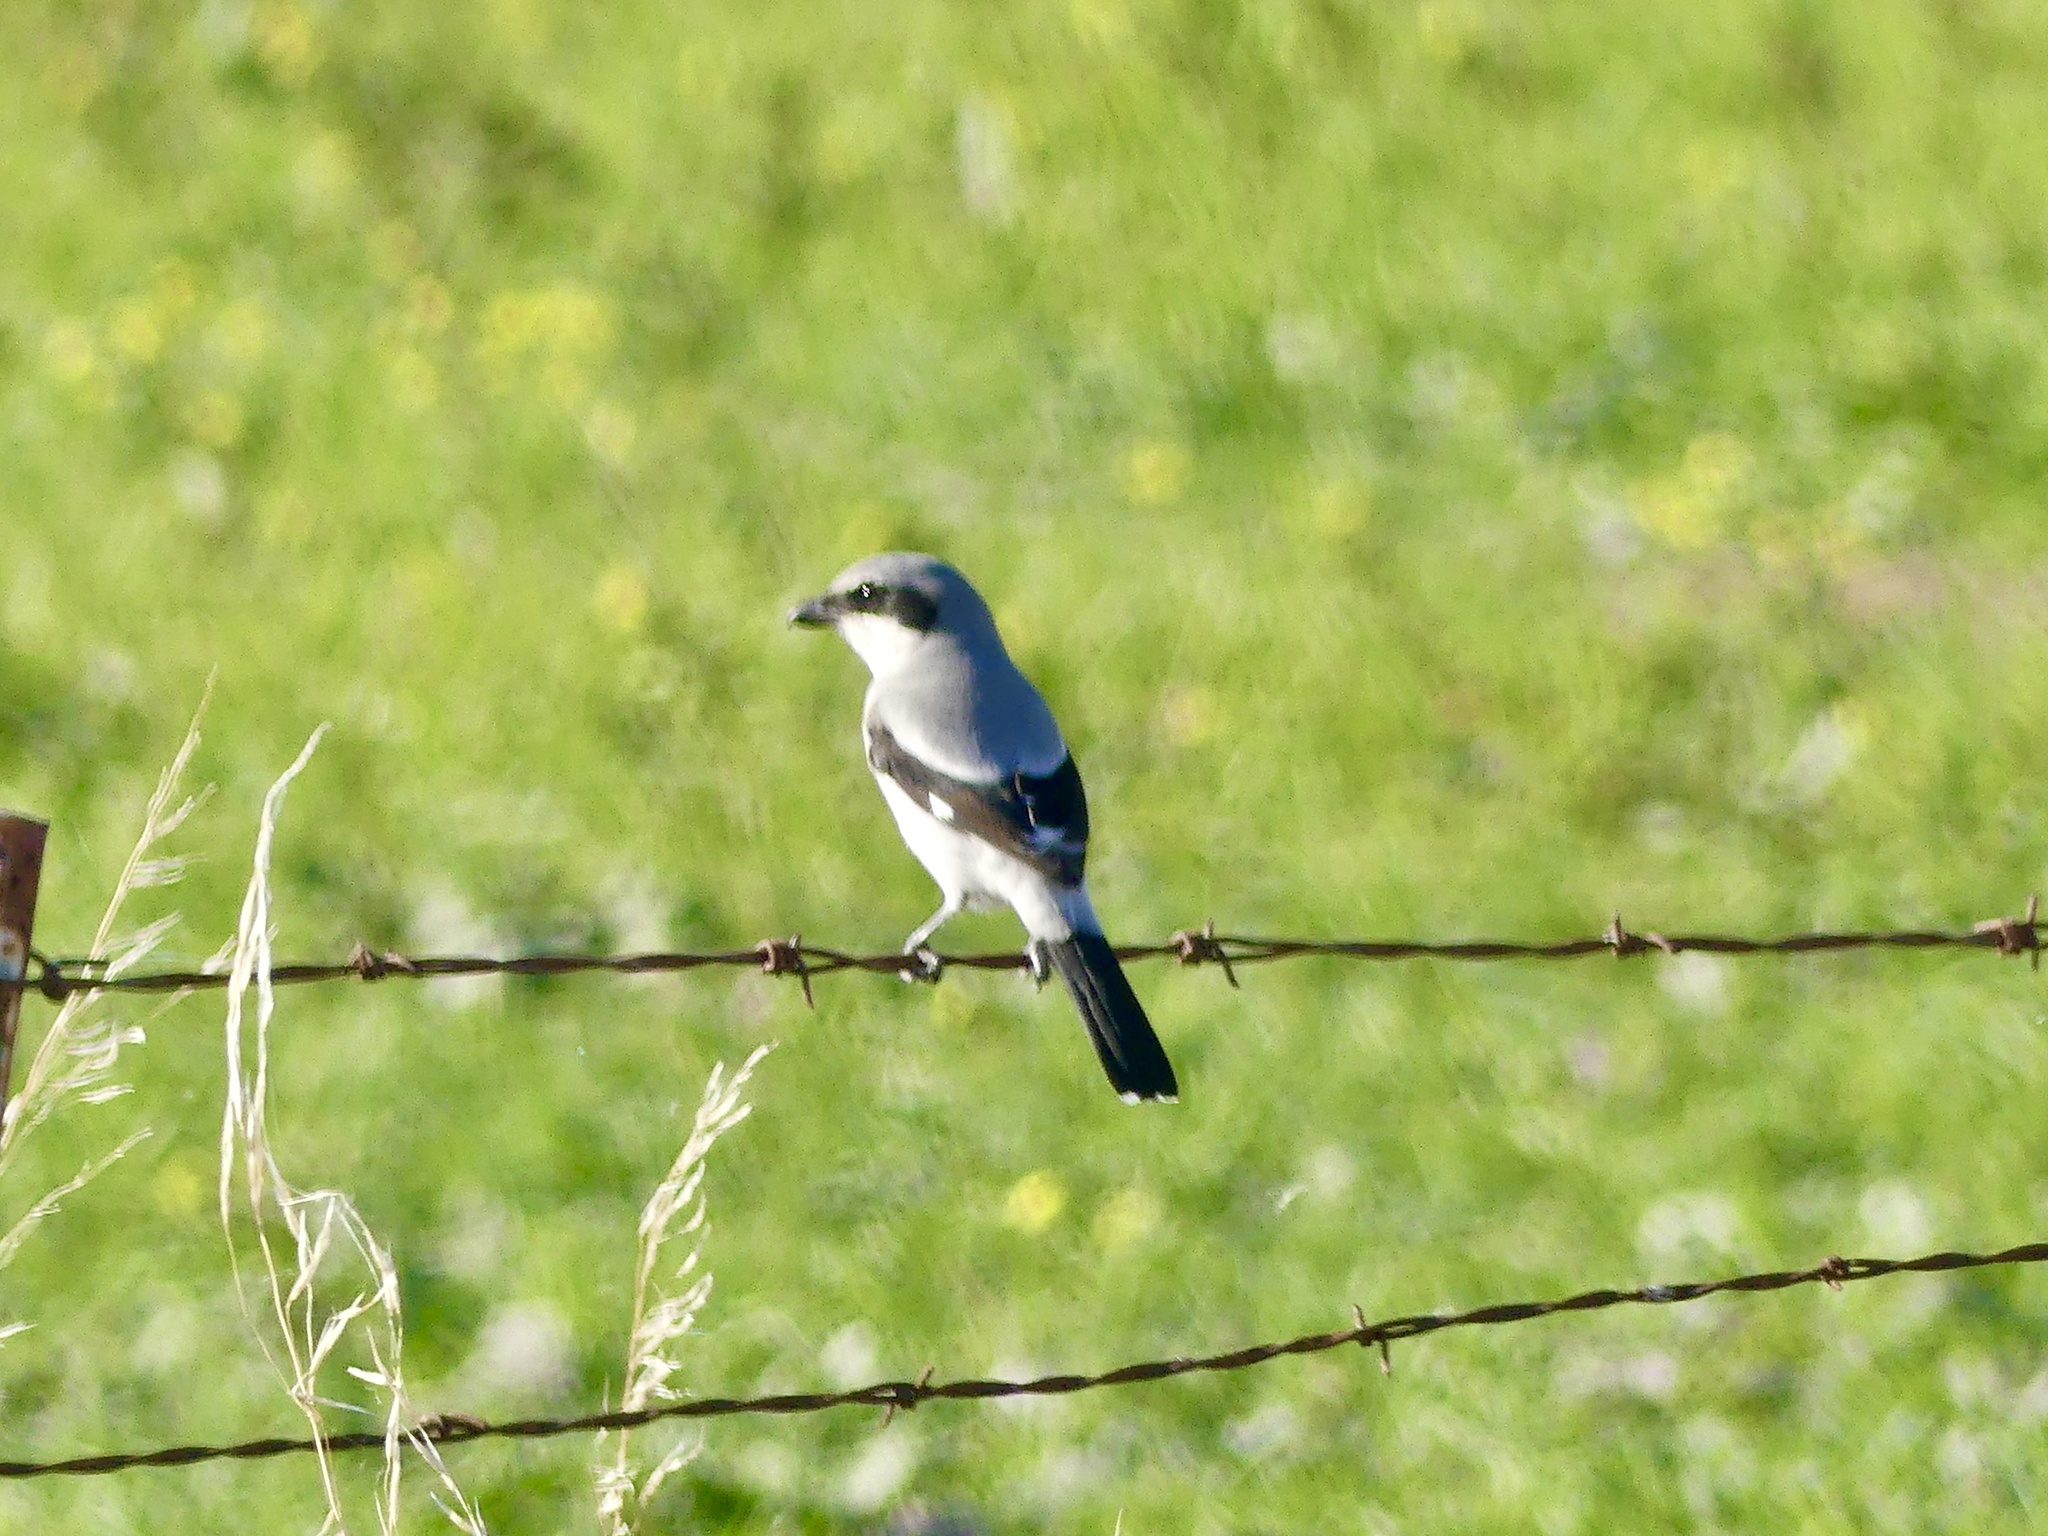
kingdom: Animalia
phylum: Chordata
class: Aves
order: Passeriformes
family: Laniidae
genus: Lanius
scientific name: Lanius ludovicianus
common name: Loggerhead shrike
